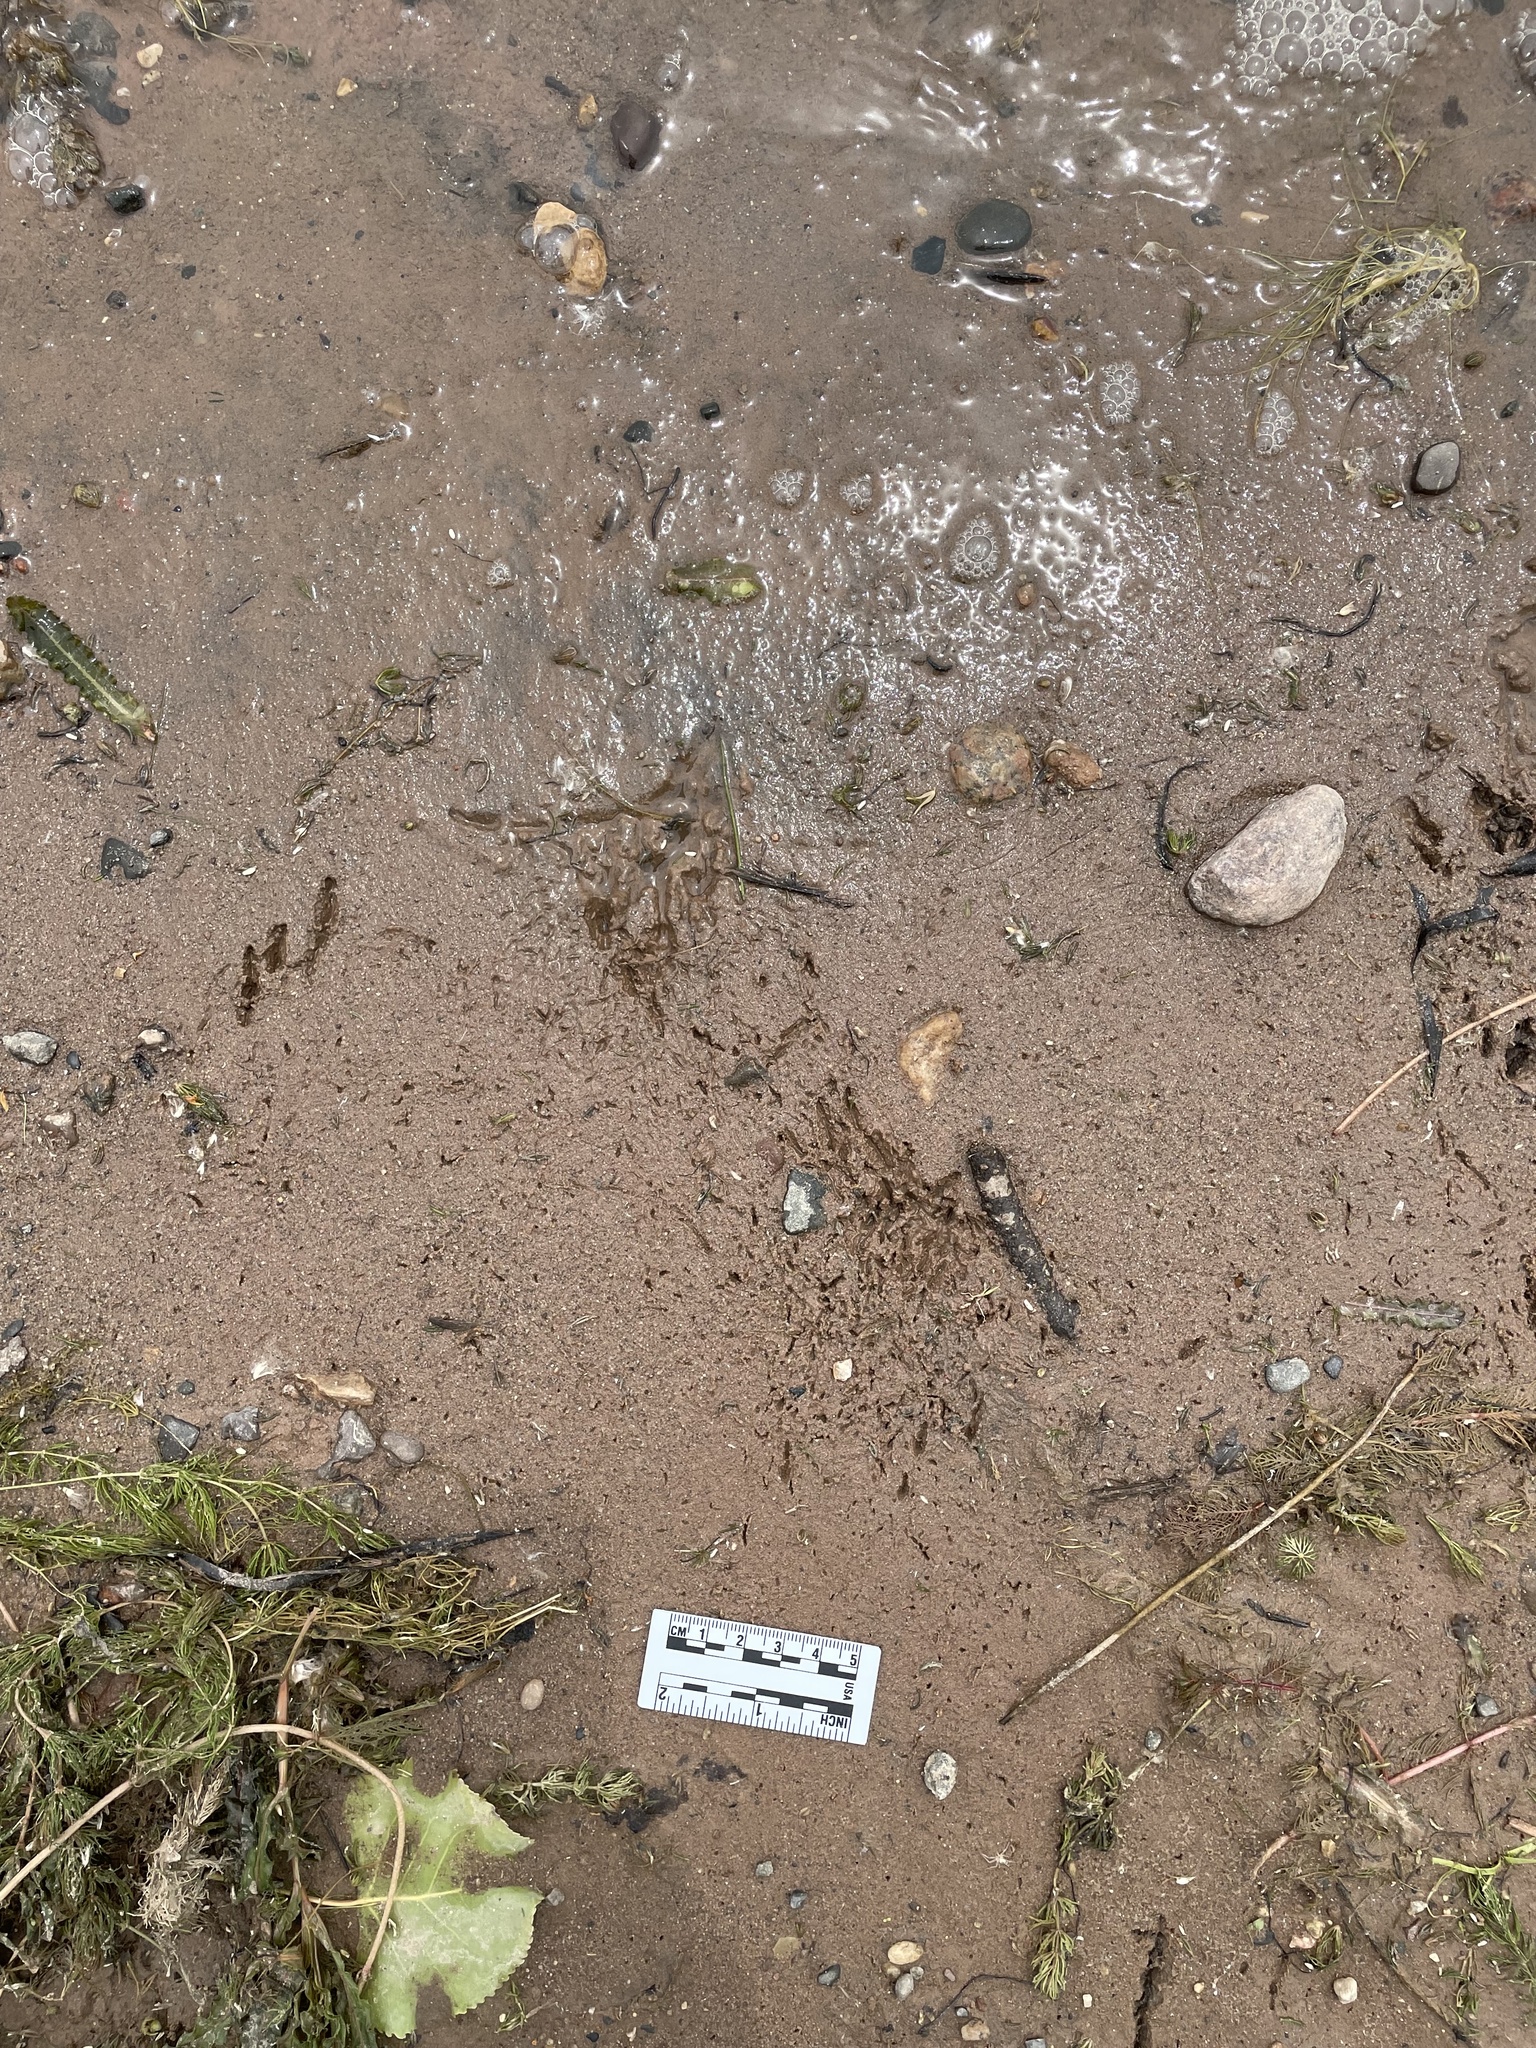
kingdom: Animalia
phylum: Chordata
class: Aves
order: Passeriformes
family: Hirundinidae
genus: Petrochelidon
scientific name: Petrochelidon pyrrhonota
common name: American cliff swallow
